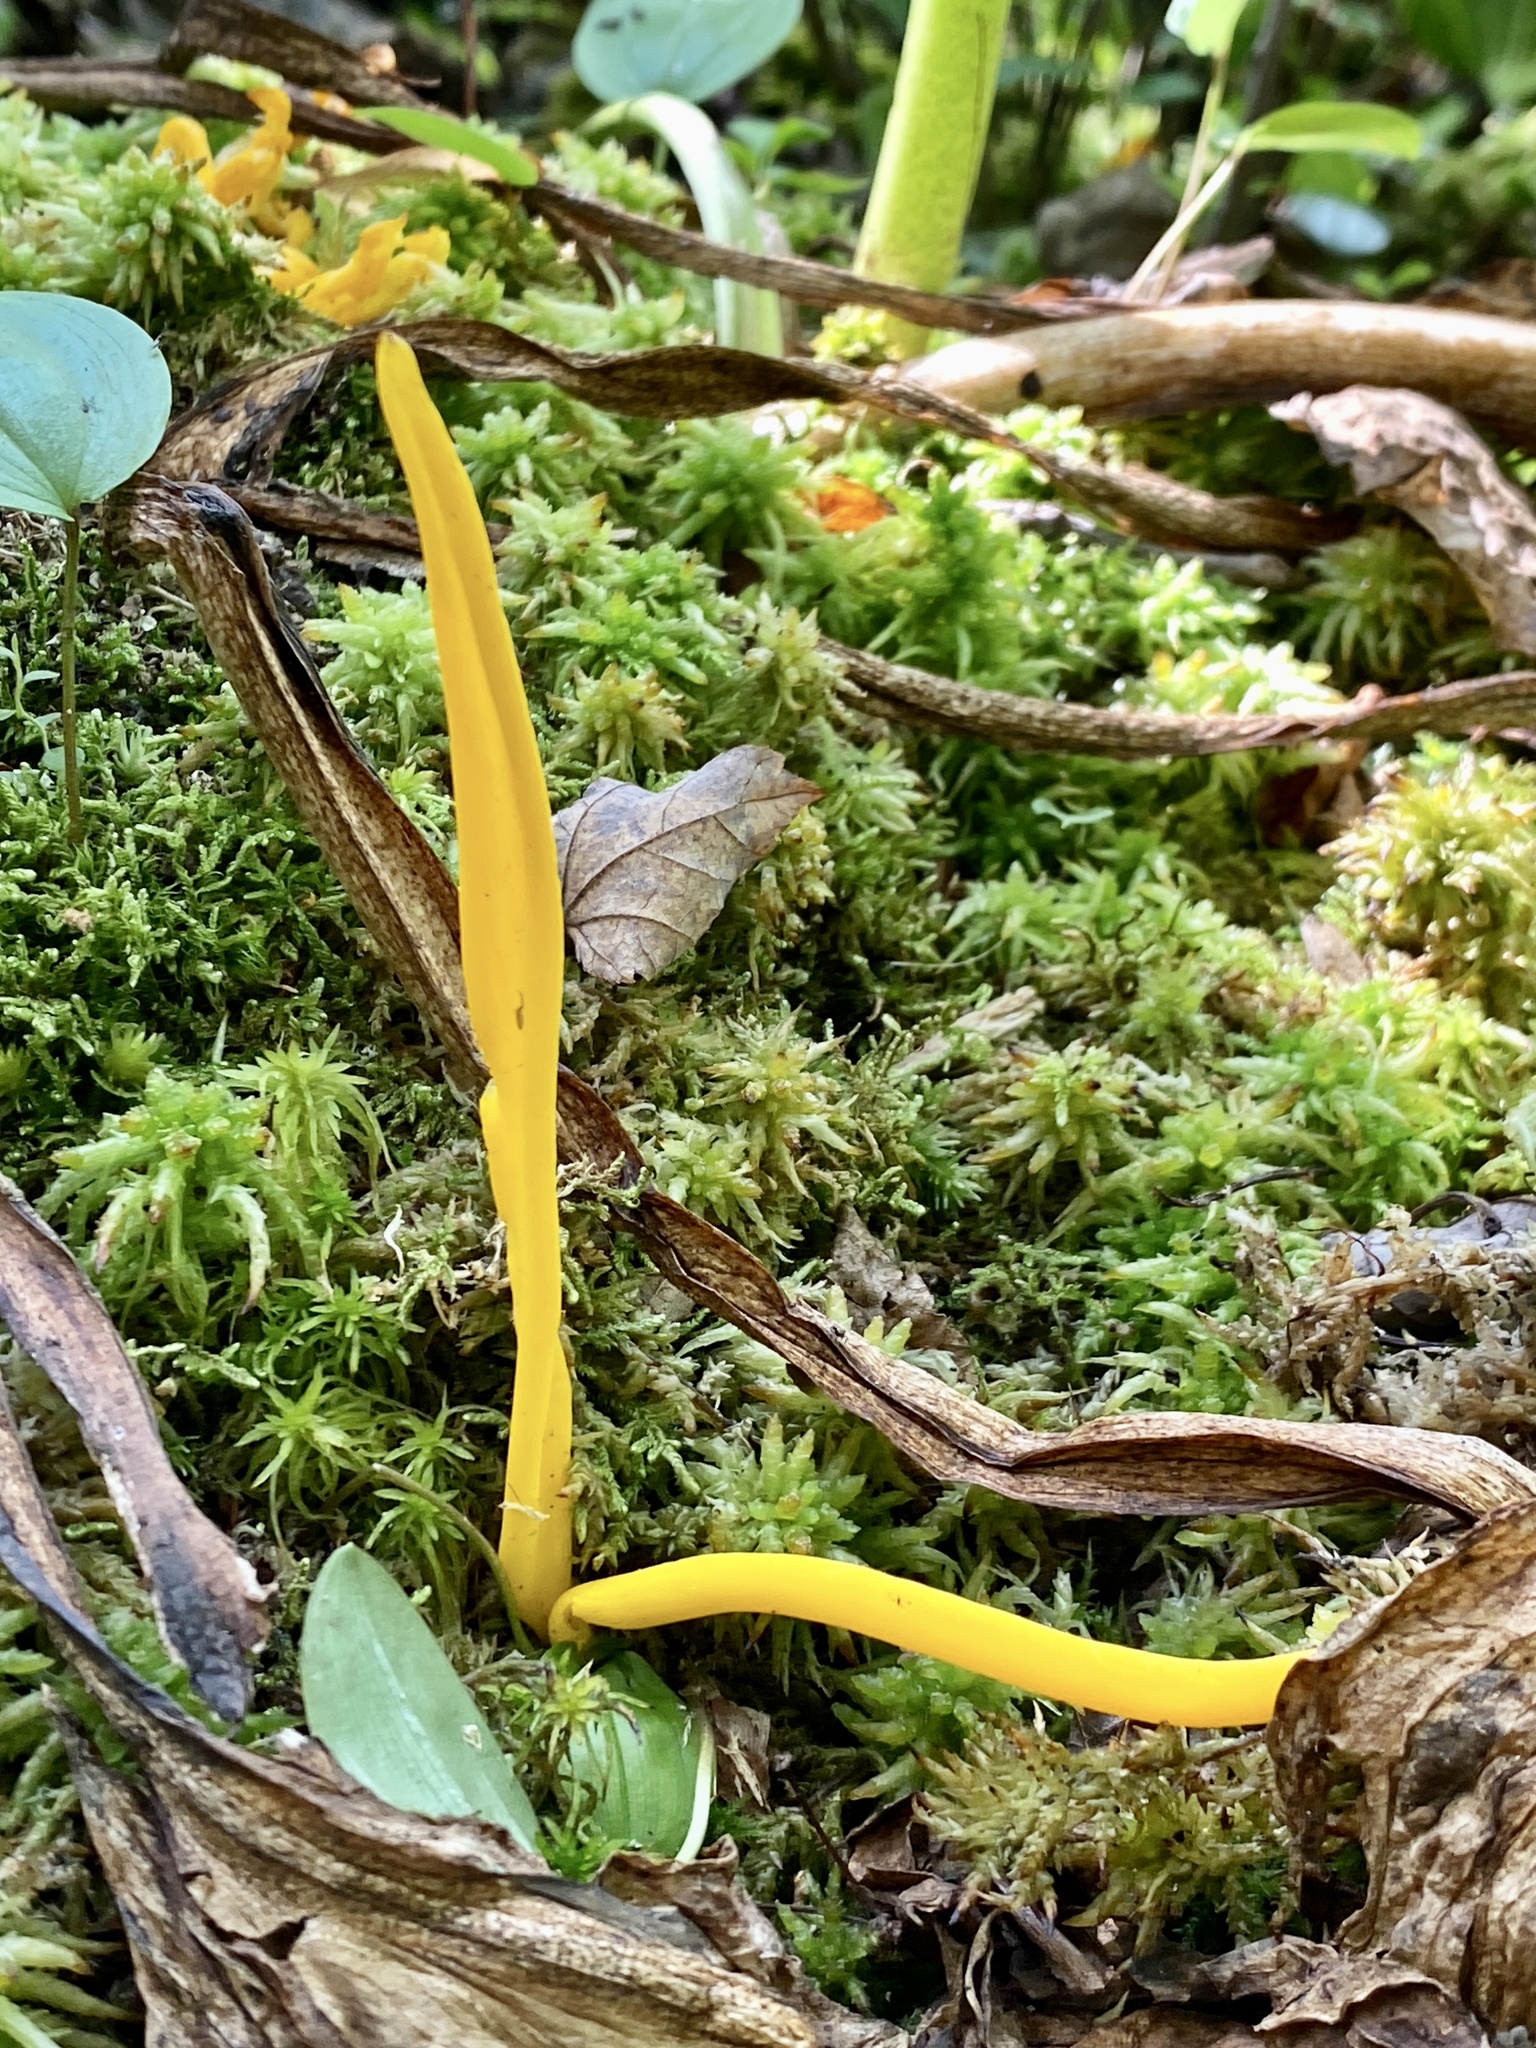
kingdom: Fungi
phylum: Basidiomycota
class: Agaricomycetes
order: Agaricales
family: Clavariaceae
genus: Clavulinopsis
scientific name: Clavulinopsis laeticolor
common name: Handsome club
